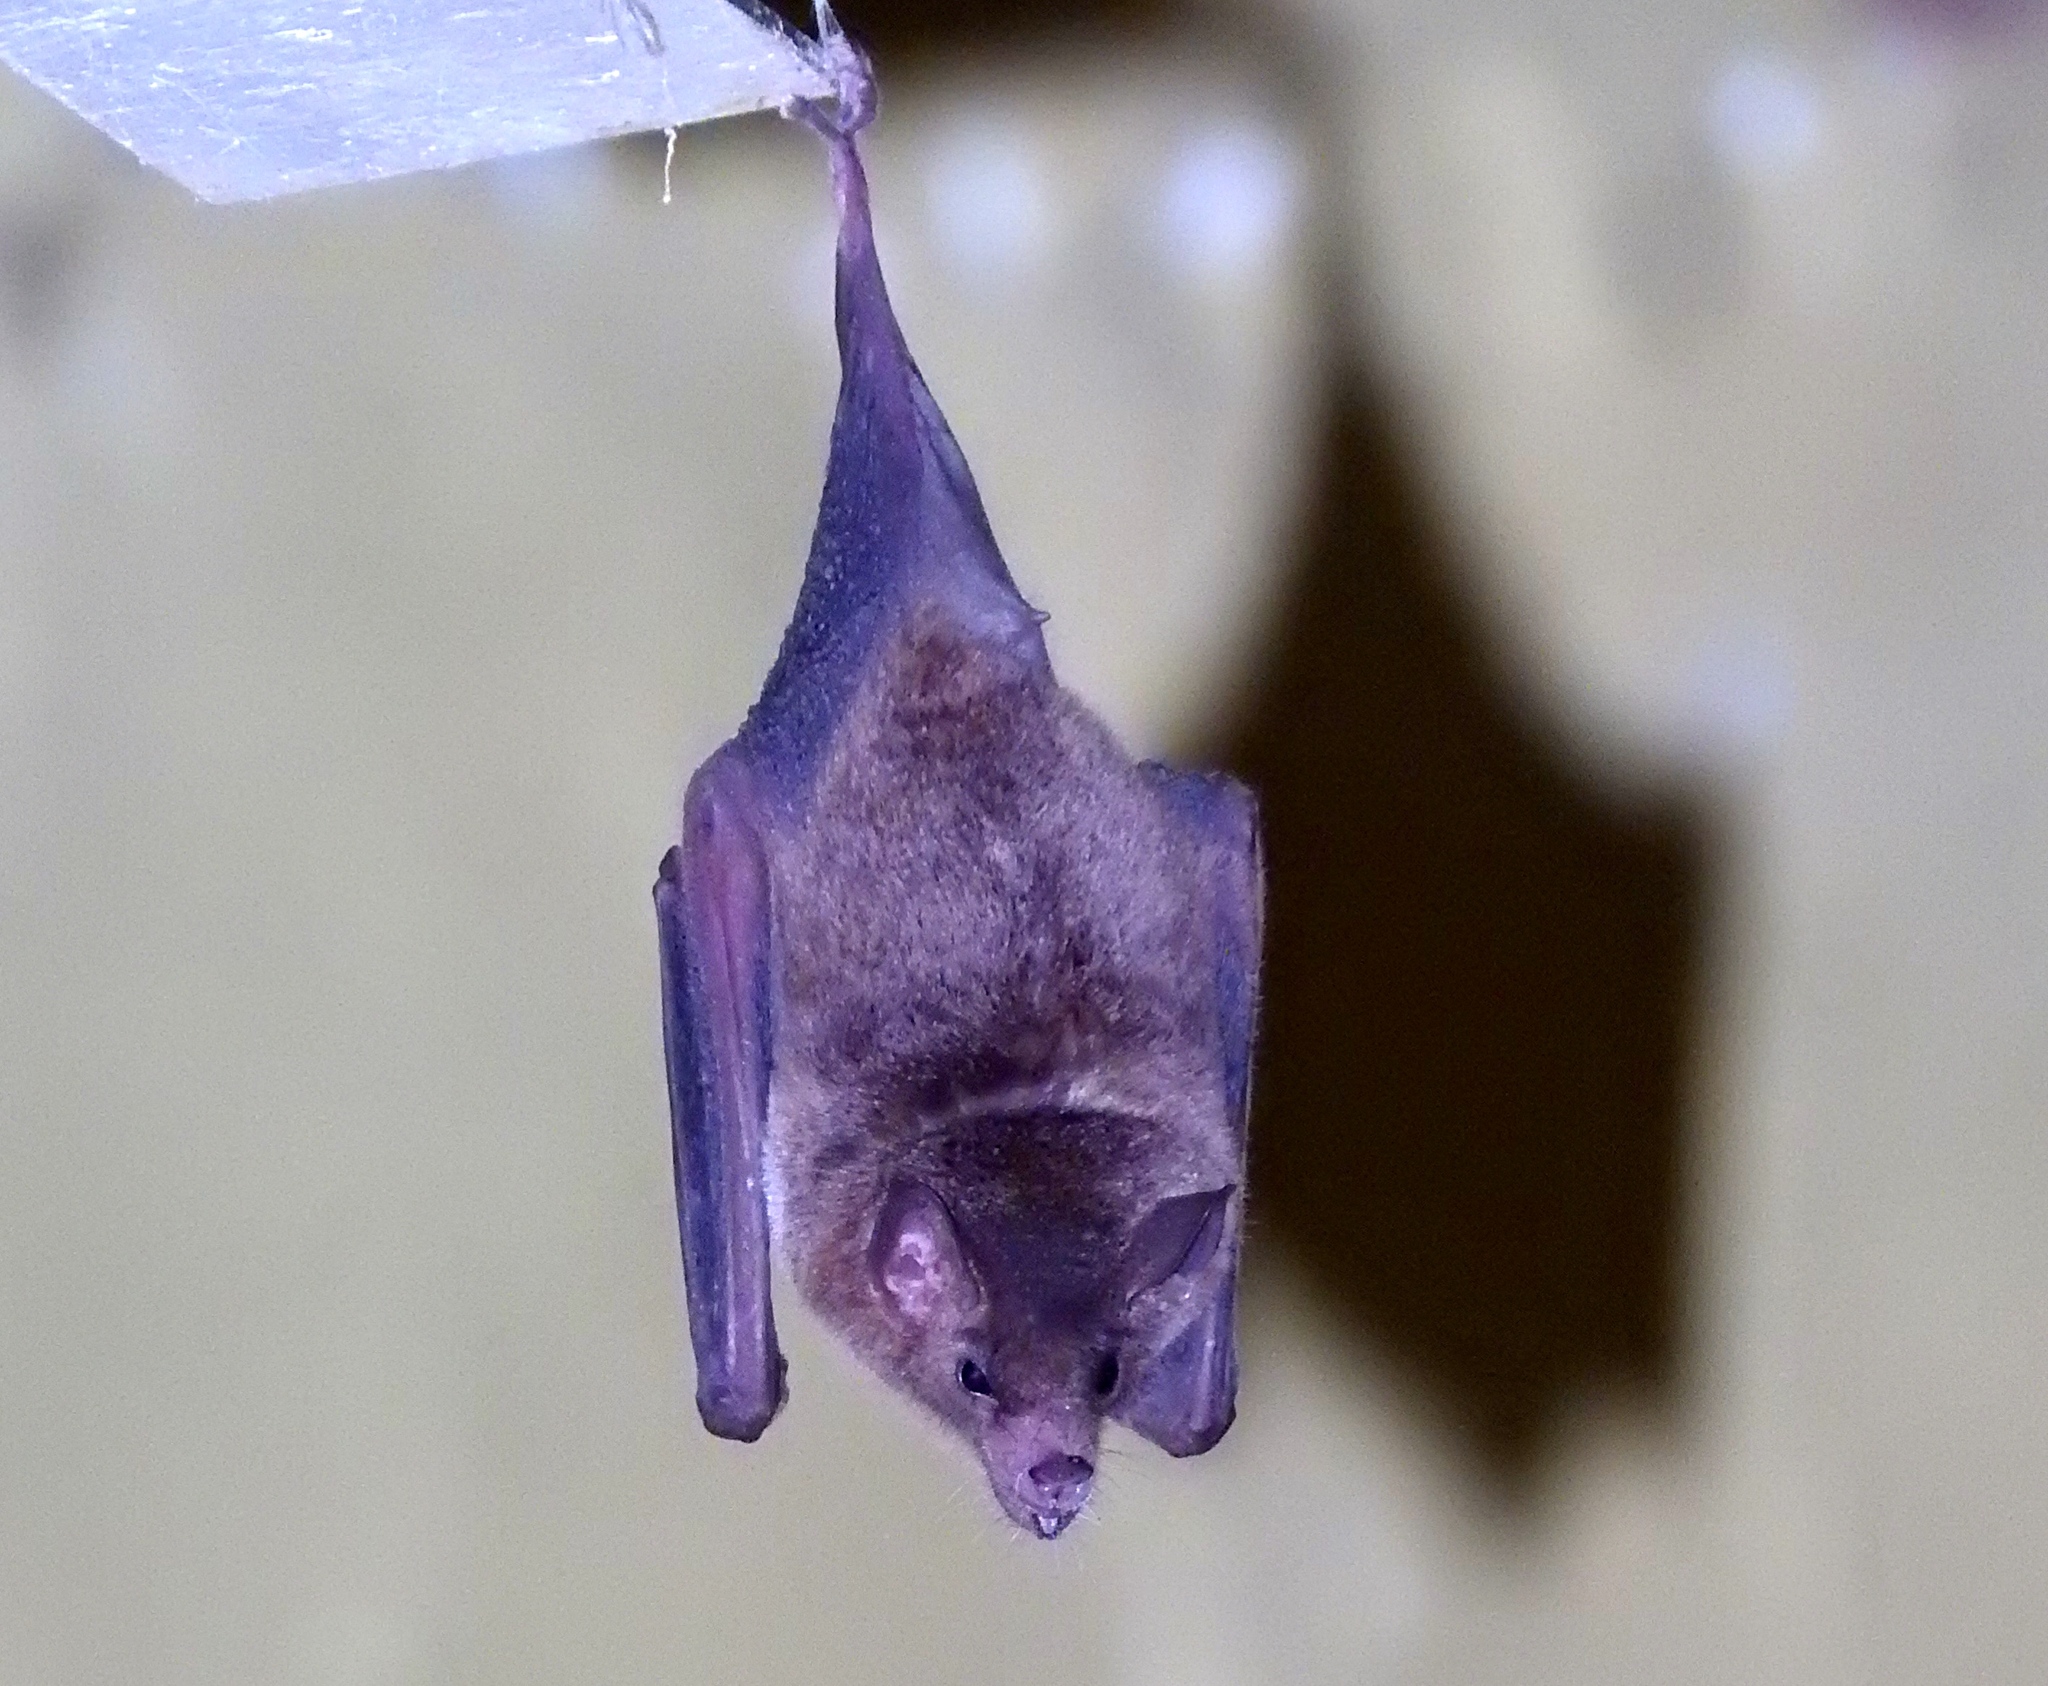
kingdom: Animalia
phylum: Chordata
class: Mammalia
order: Chiroptera
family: Phyllostomidae
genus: Glossophaga
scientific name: Glossophaga
